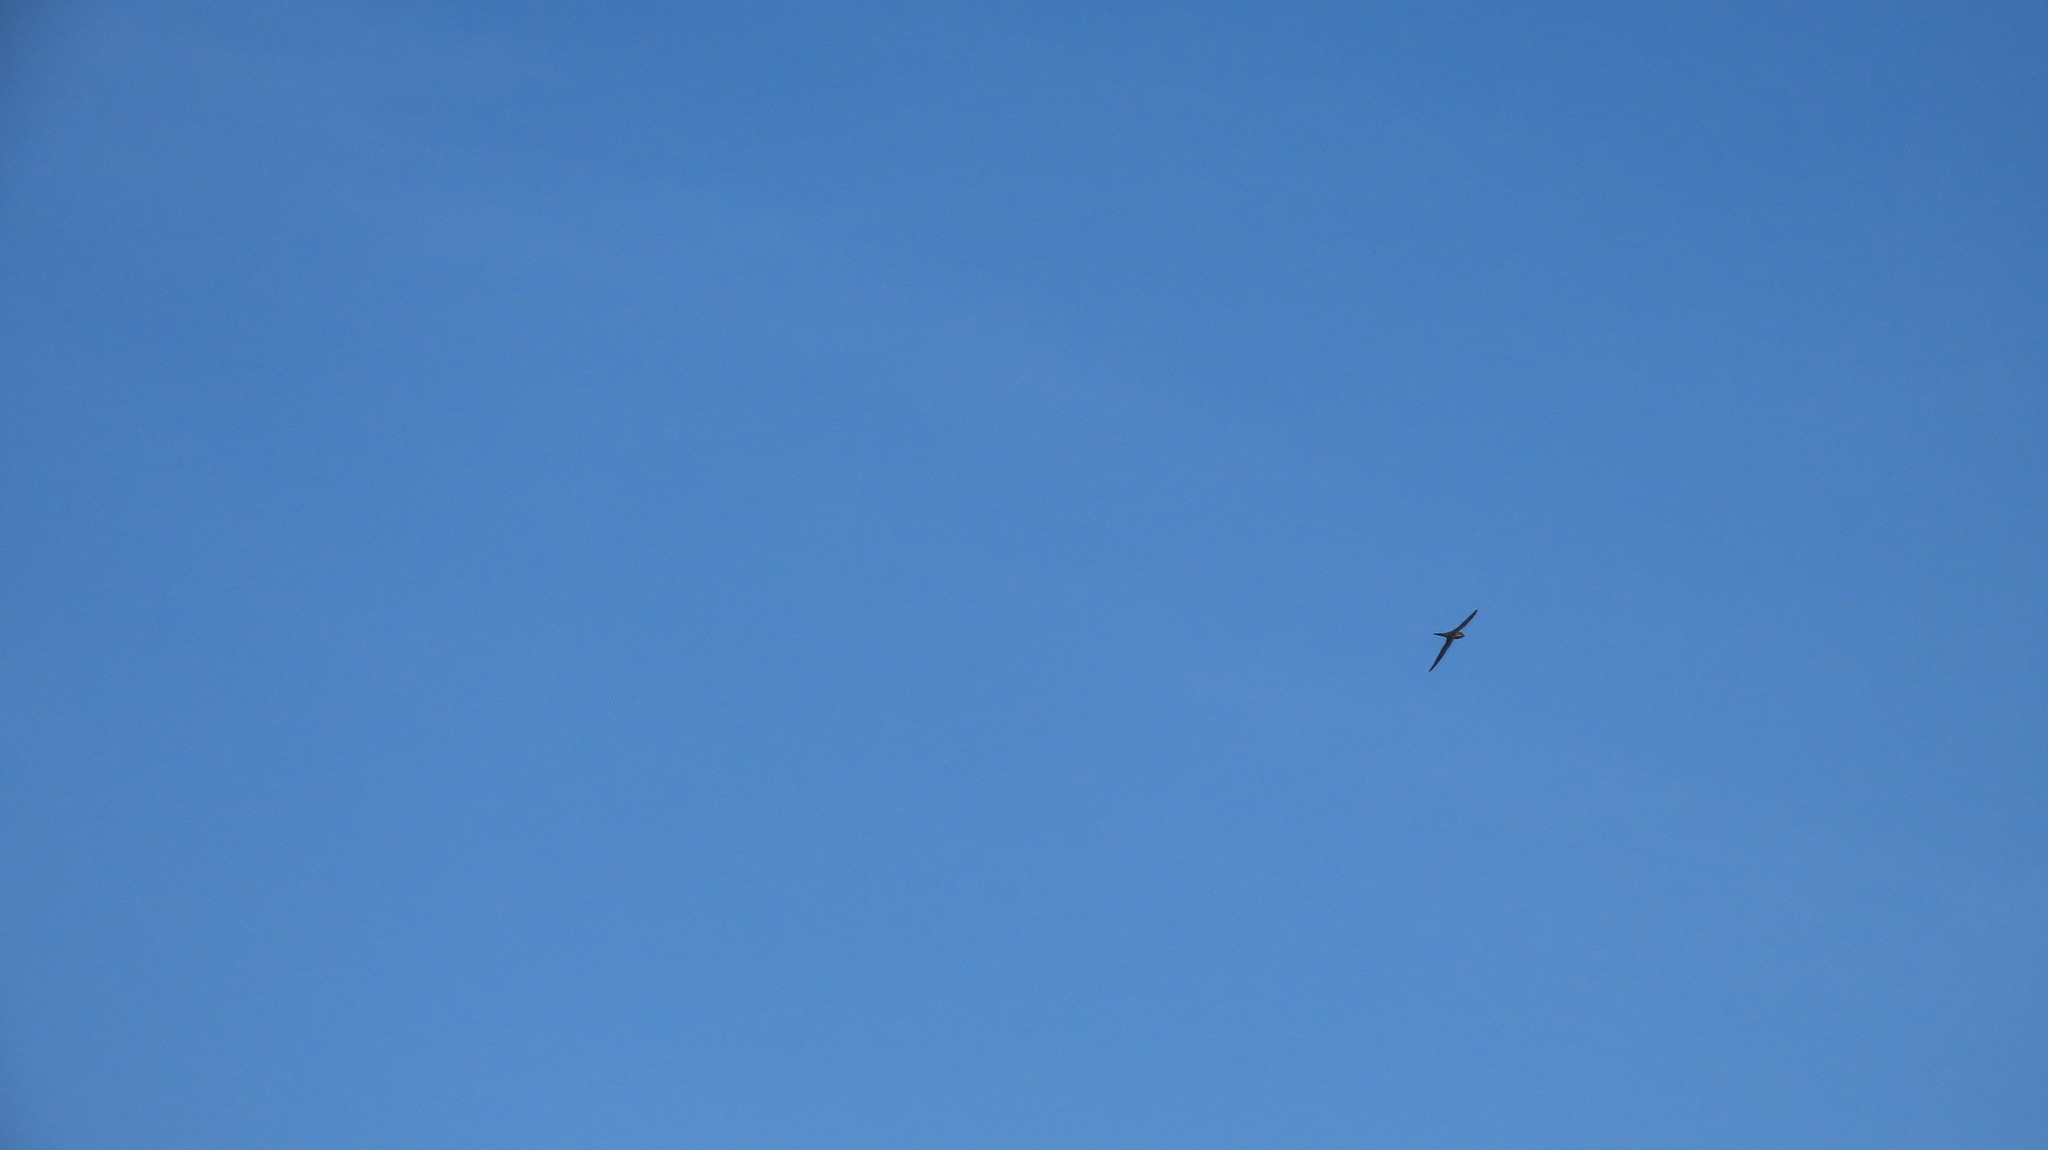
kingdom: Animalia
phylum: Chordata
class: Aves
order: Apodiformes
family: Apodidae
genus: Cypsiurus
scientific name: Cypsiurus balasiensis
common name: Asian palm swift
